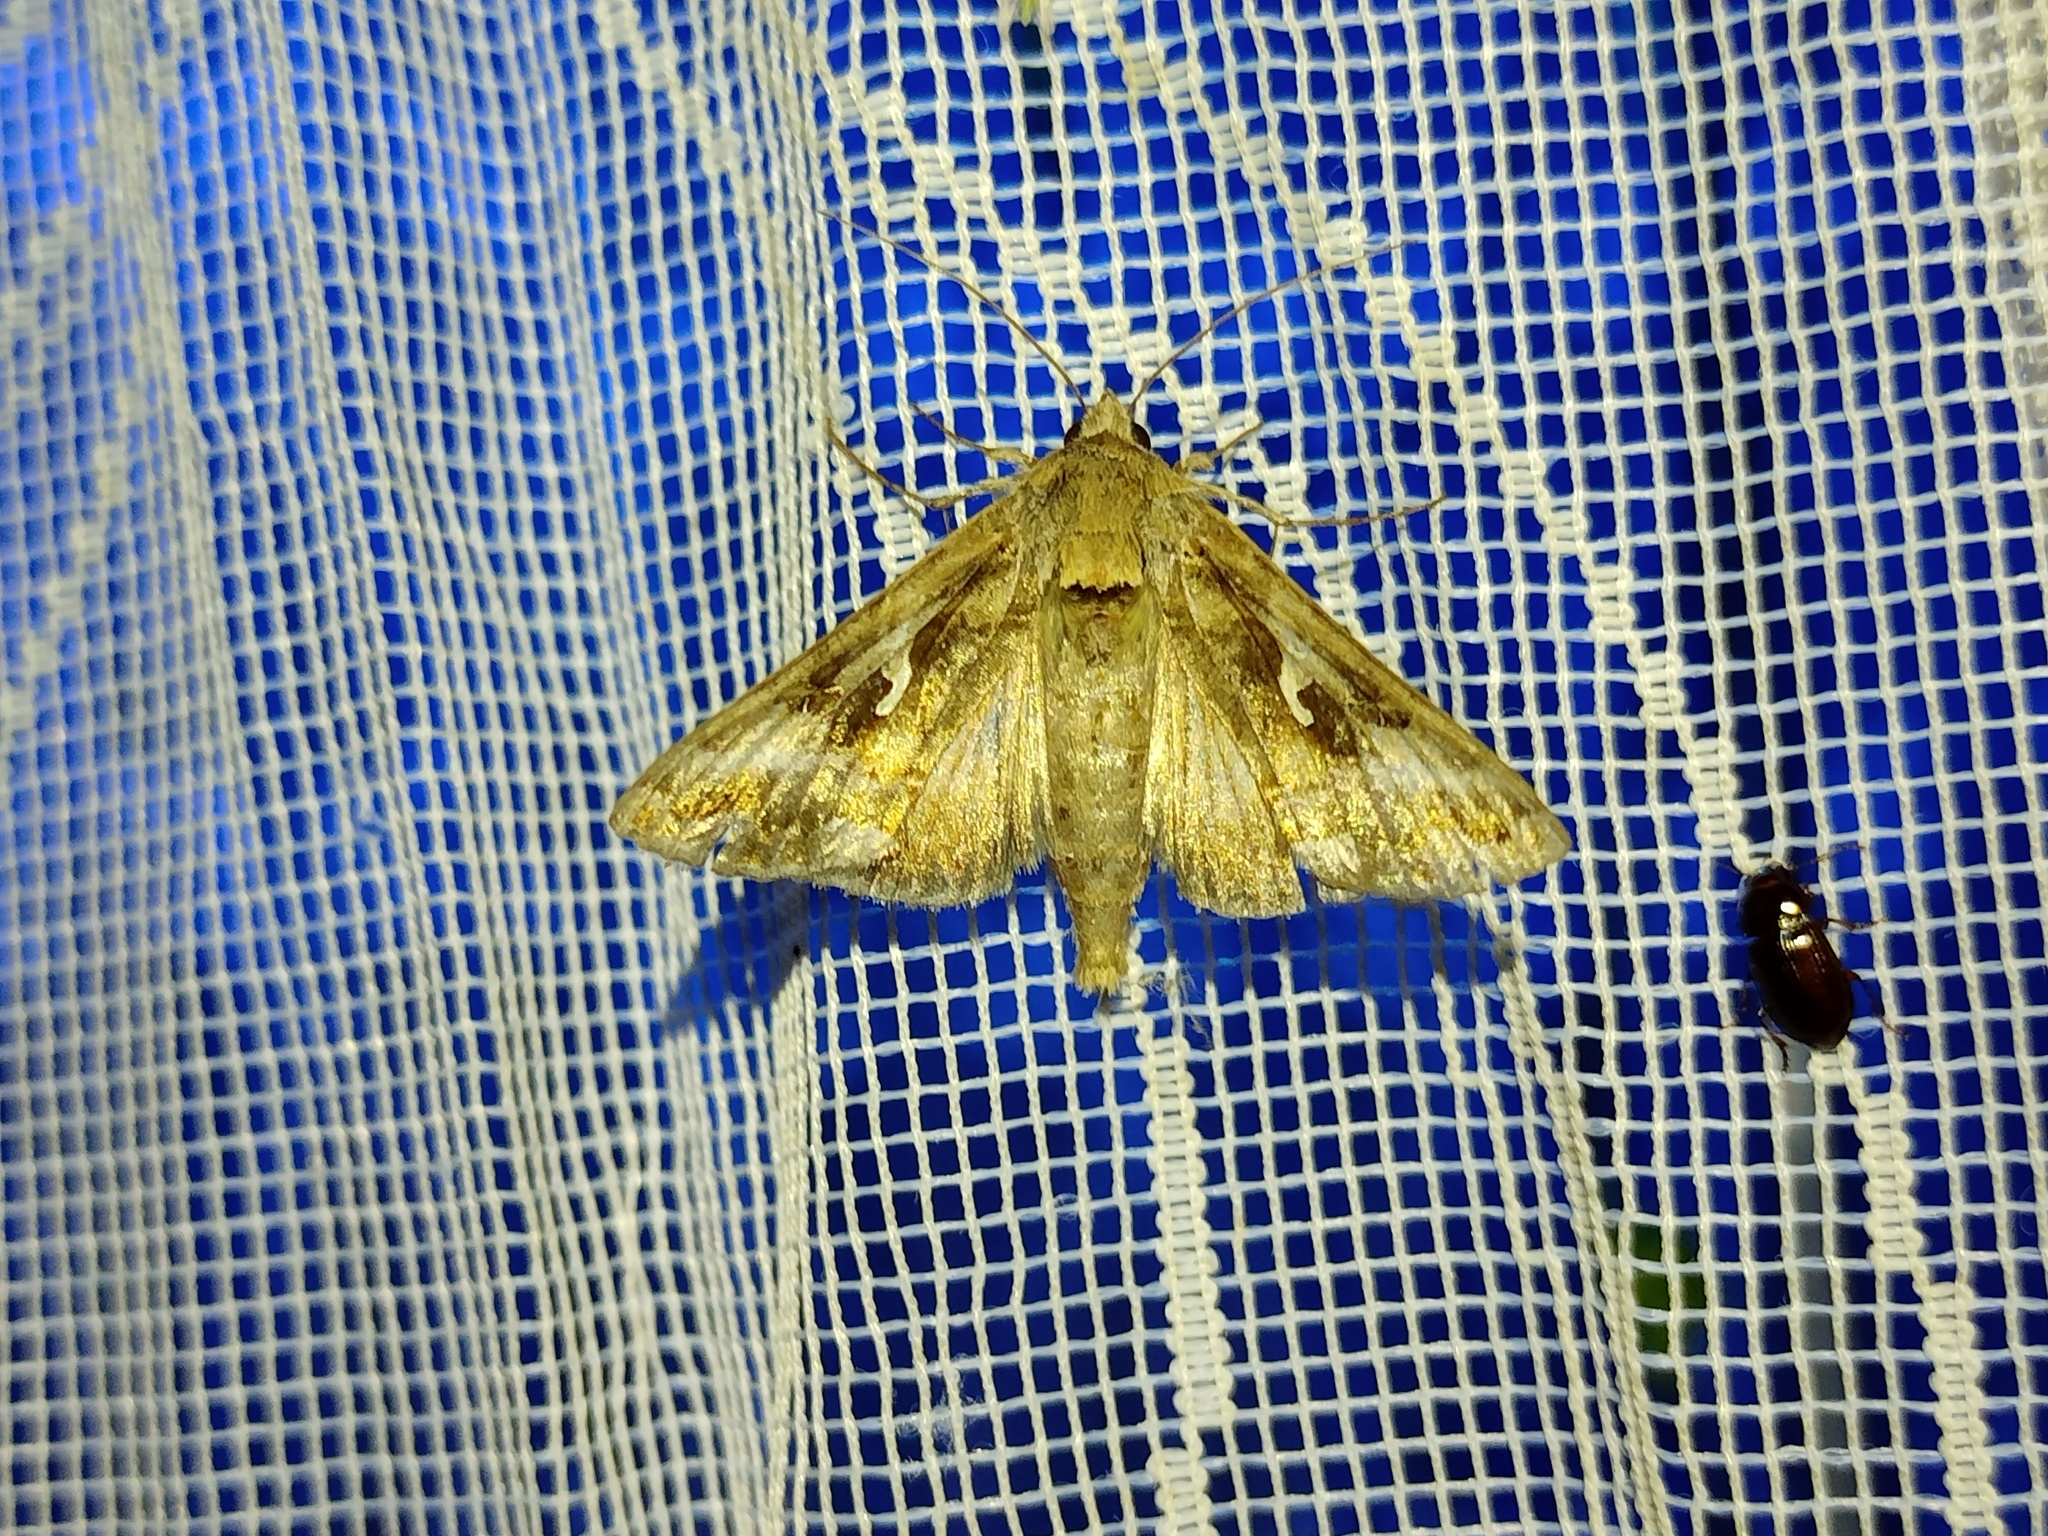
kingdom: Animalia
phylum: Arthropoda
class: Insecta
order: Lepidoptera
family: Noctuidae
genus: Autographa
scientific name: Autographa gamma
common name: Silver y
